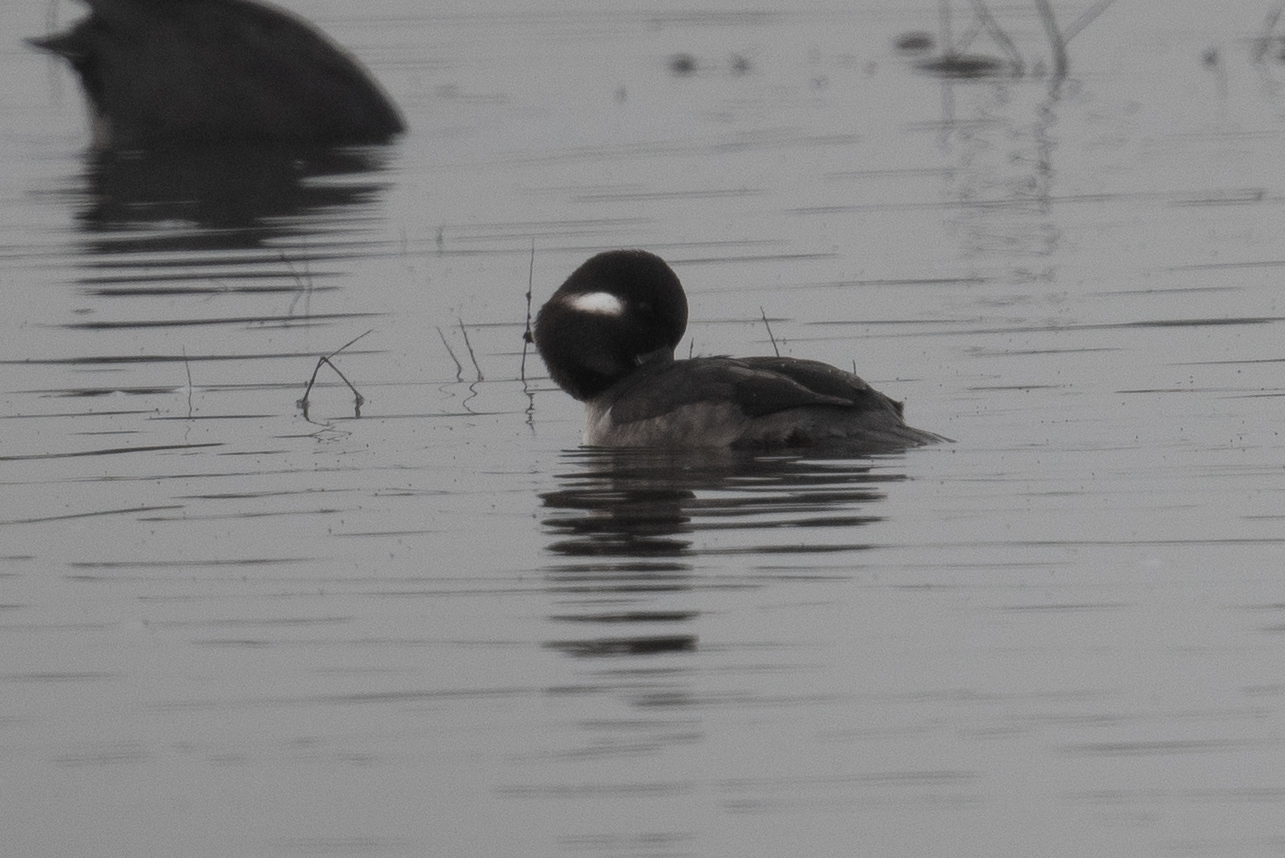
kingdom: Animalia
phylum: Chordata
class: Aves
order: Anseriformes
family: Anatidae
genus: Bucephala
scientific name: Bucephala albeola
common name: Bufflehead
